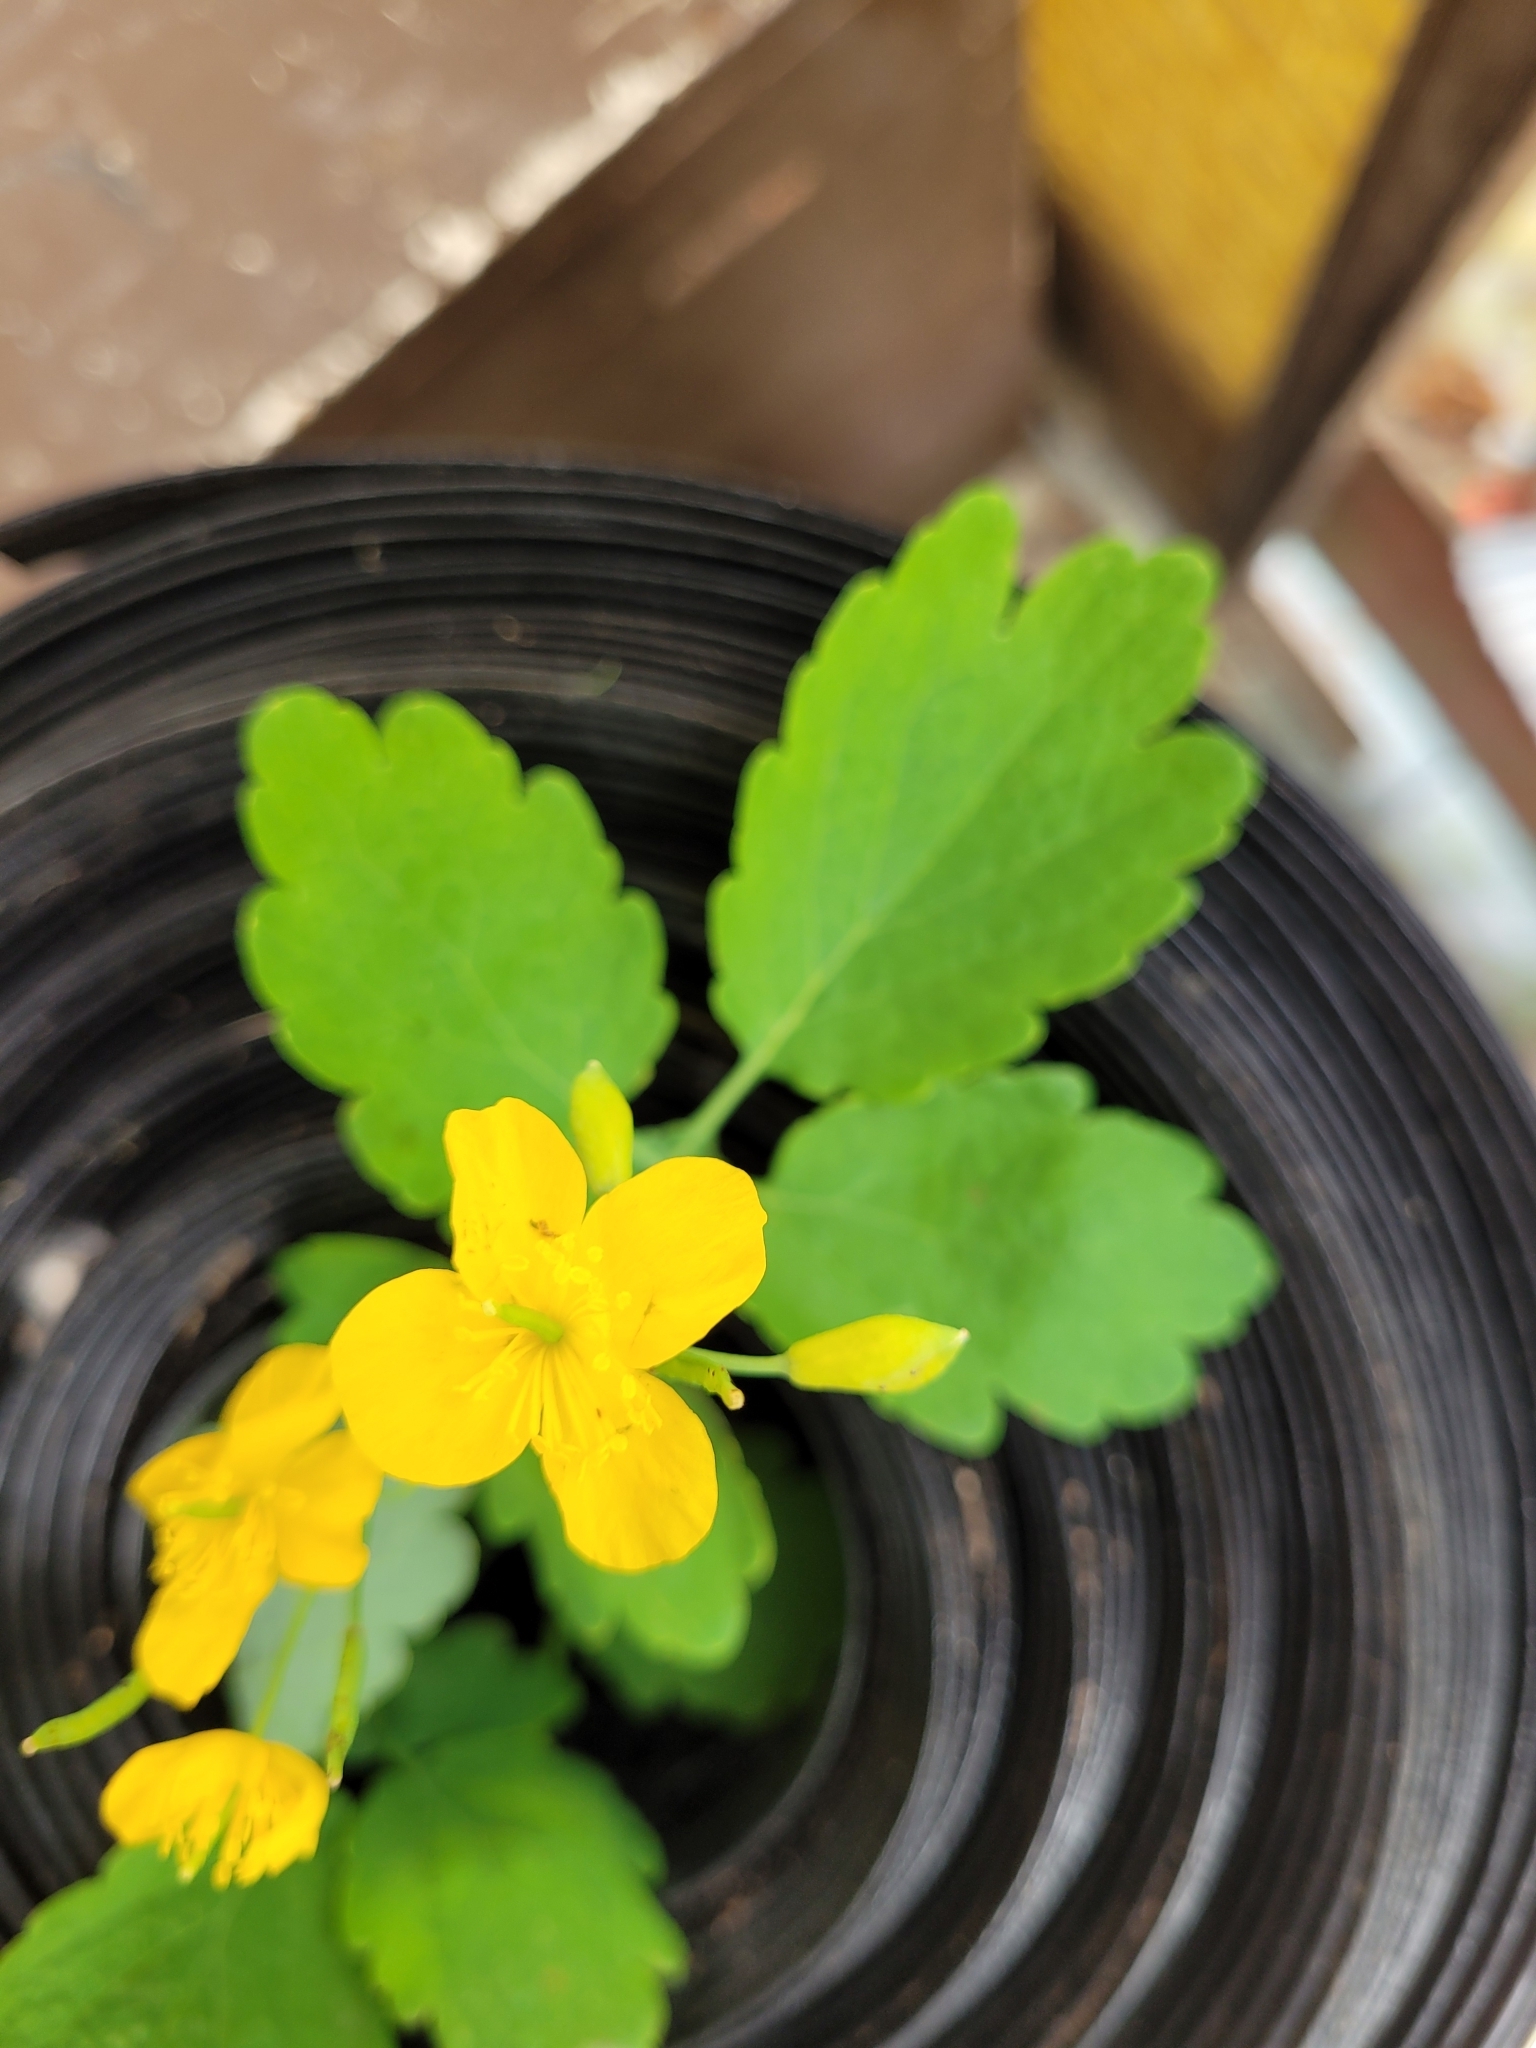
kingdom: Plantae
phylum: Tracheophyta
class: Magnoliopsida
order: Ranunculales
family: Papaveraceae
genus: Chelidonium
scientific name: Chelidonium majus
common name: Greater celandine
